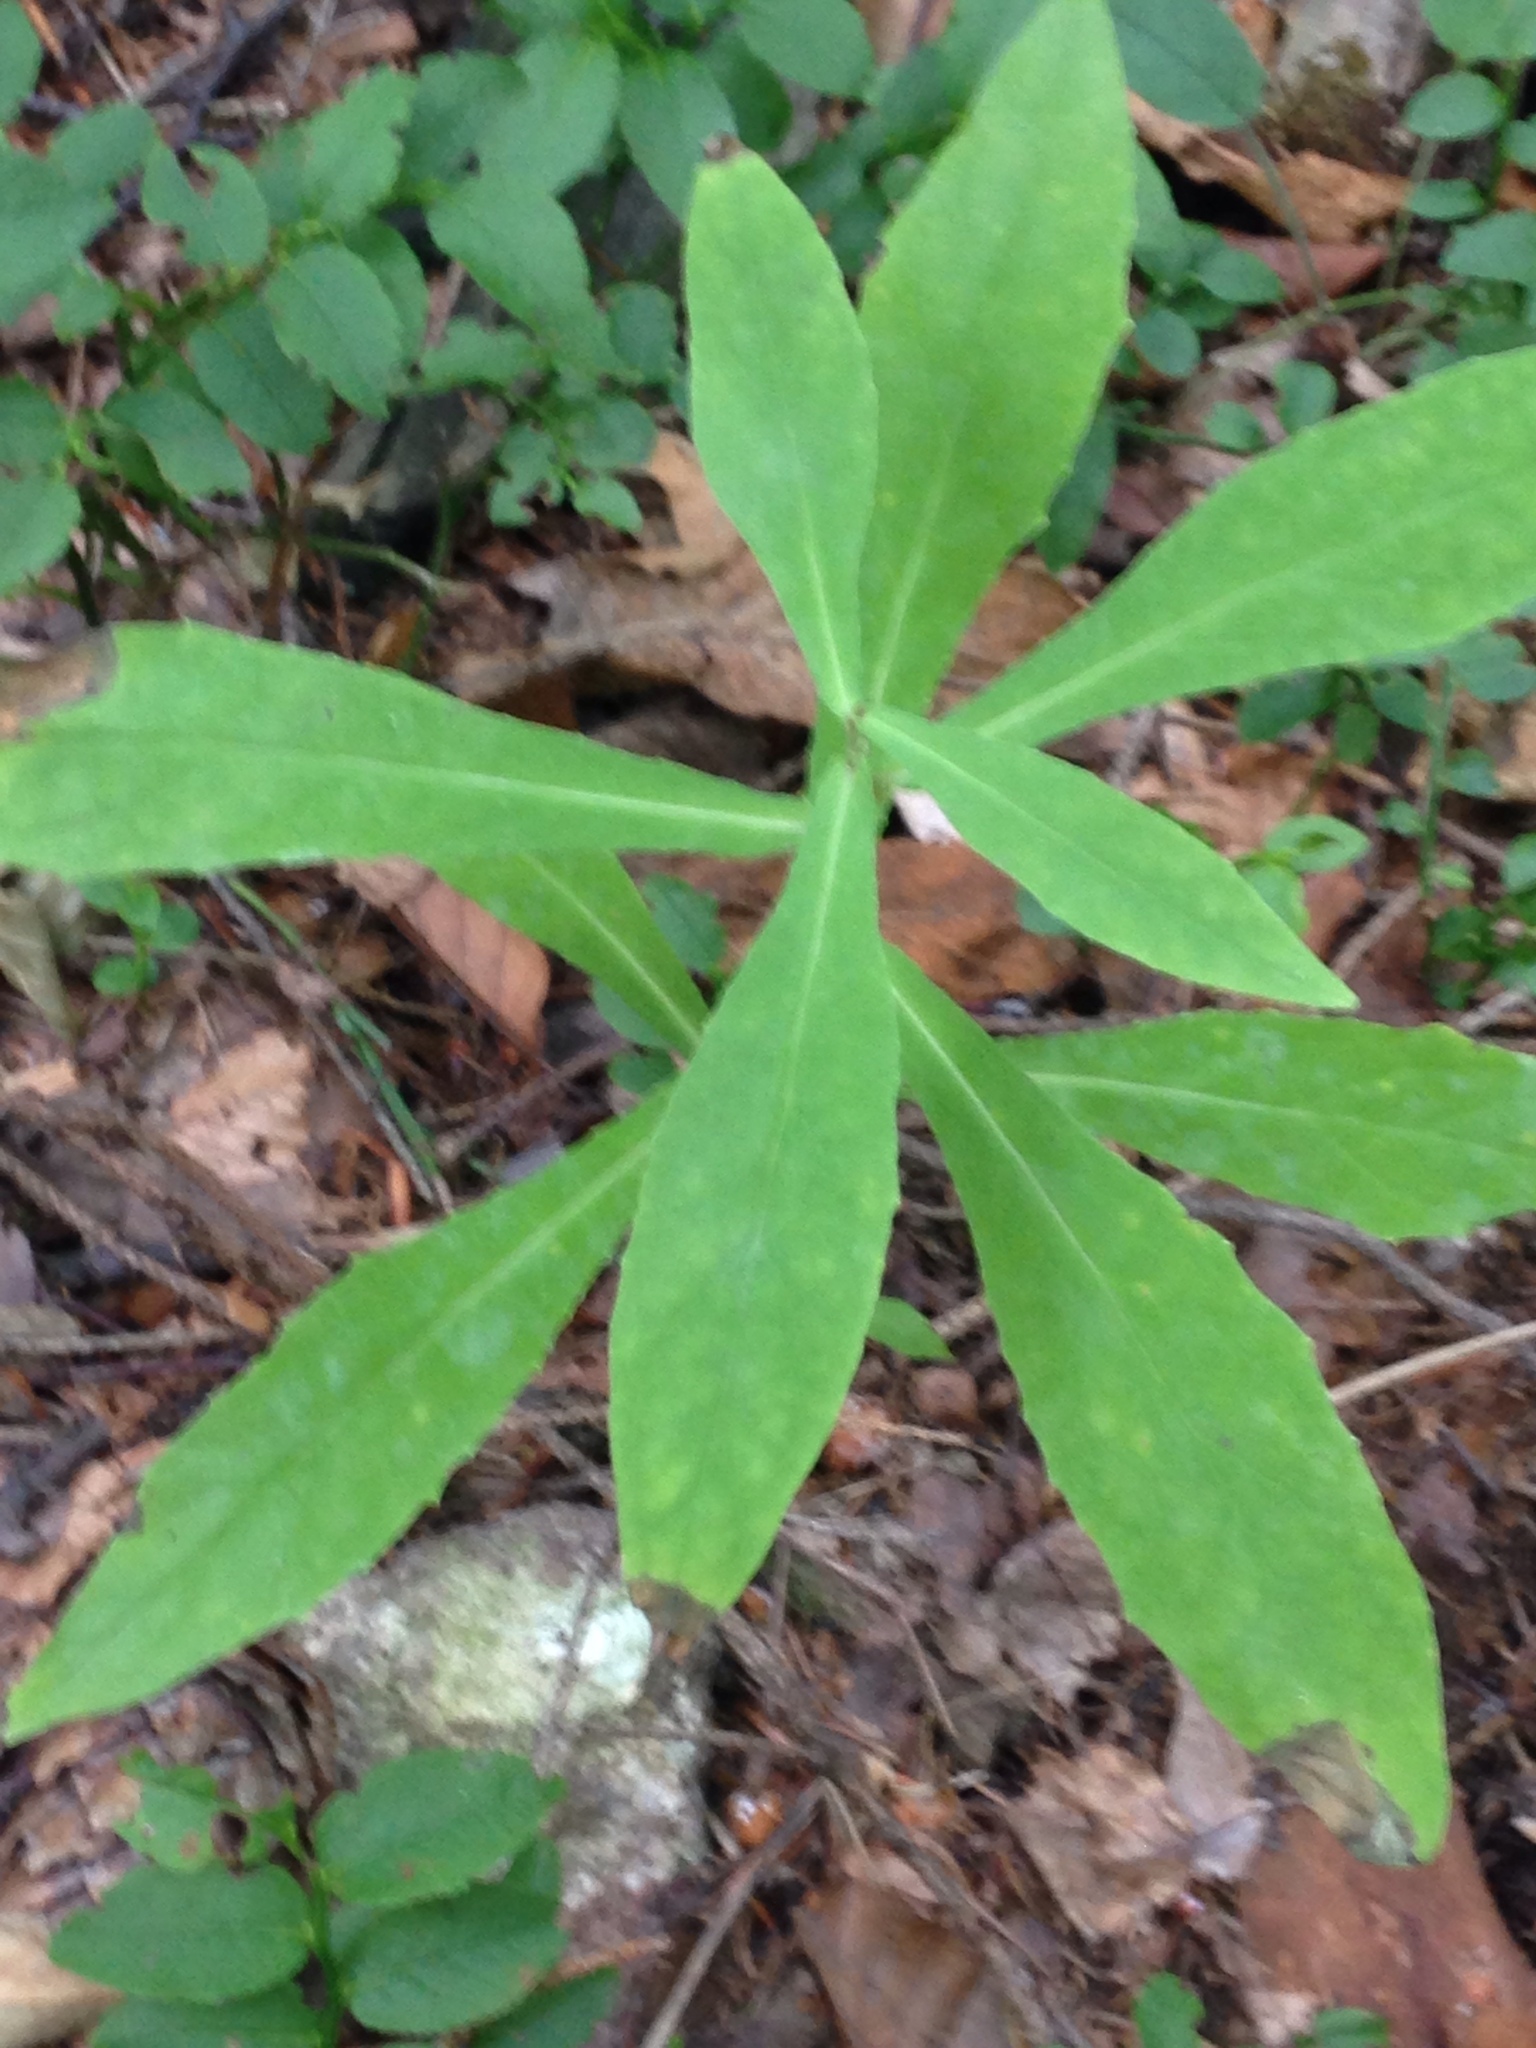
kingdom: Plantae
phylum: Tracheophyta
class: Magnoliopsida
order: Asterales
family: Asteraceae
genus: Prenanthes
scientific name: Prenanthes purpurea
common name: Purple lettuce
